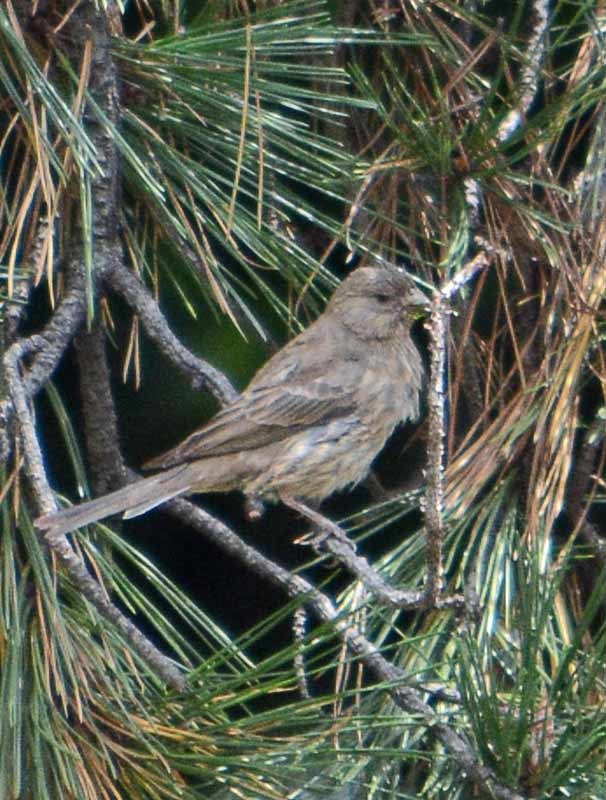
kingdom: Animalia
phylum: Chordata
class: Aves
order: Passeriformes
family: Fringillidae
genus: Haemorhous
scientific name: Haemorhous mexicanus
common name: House finch
